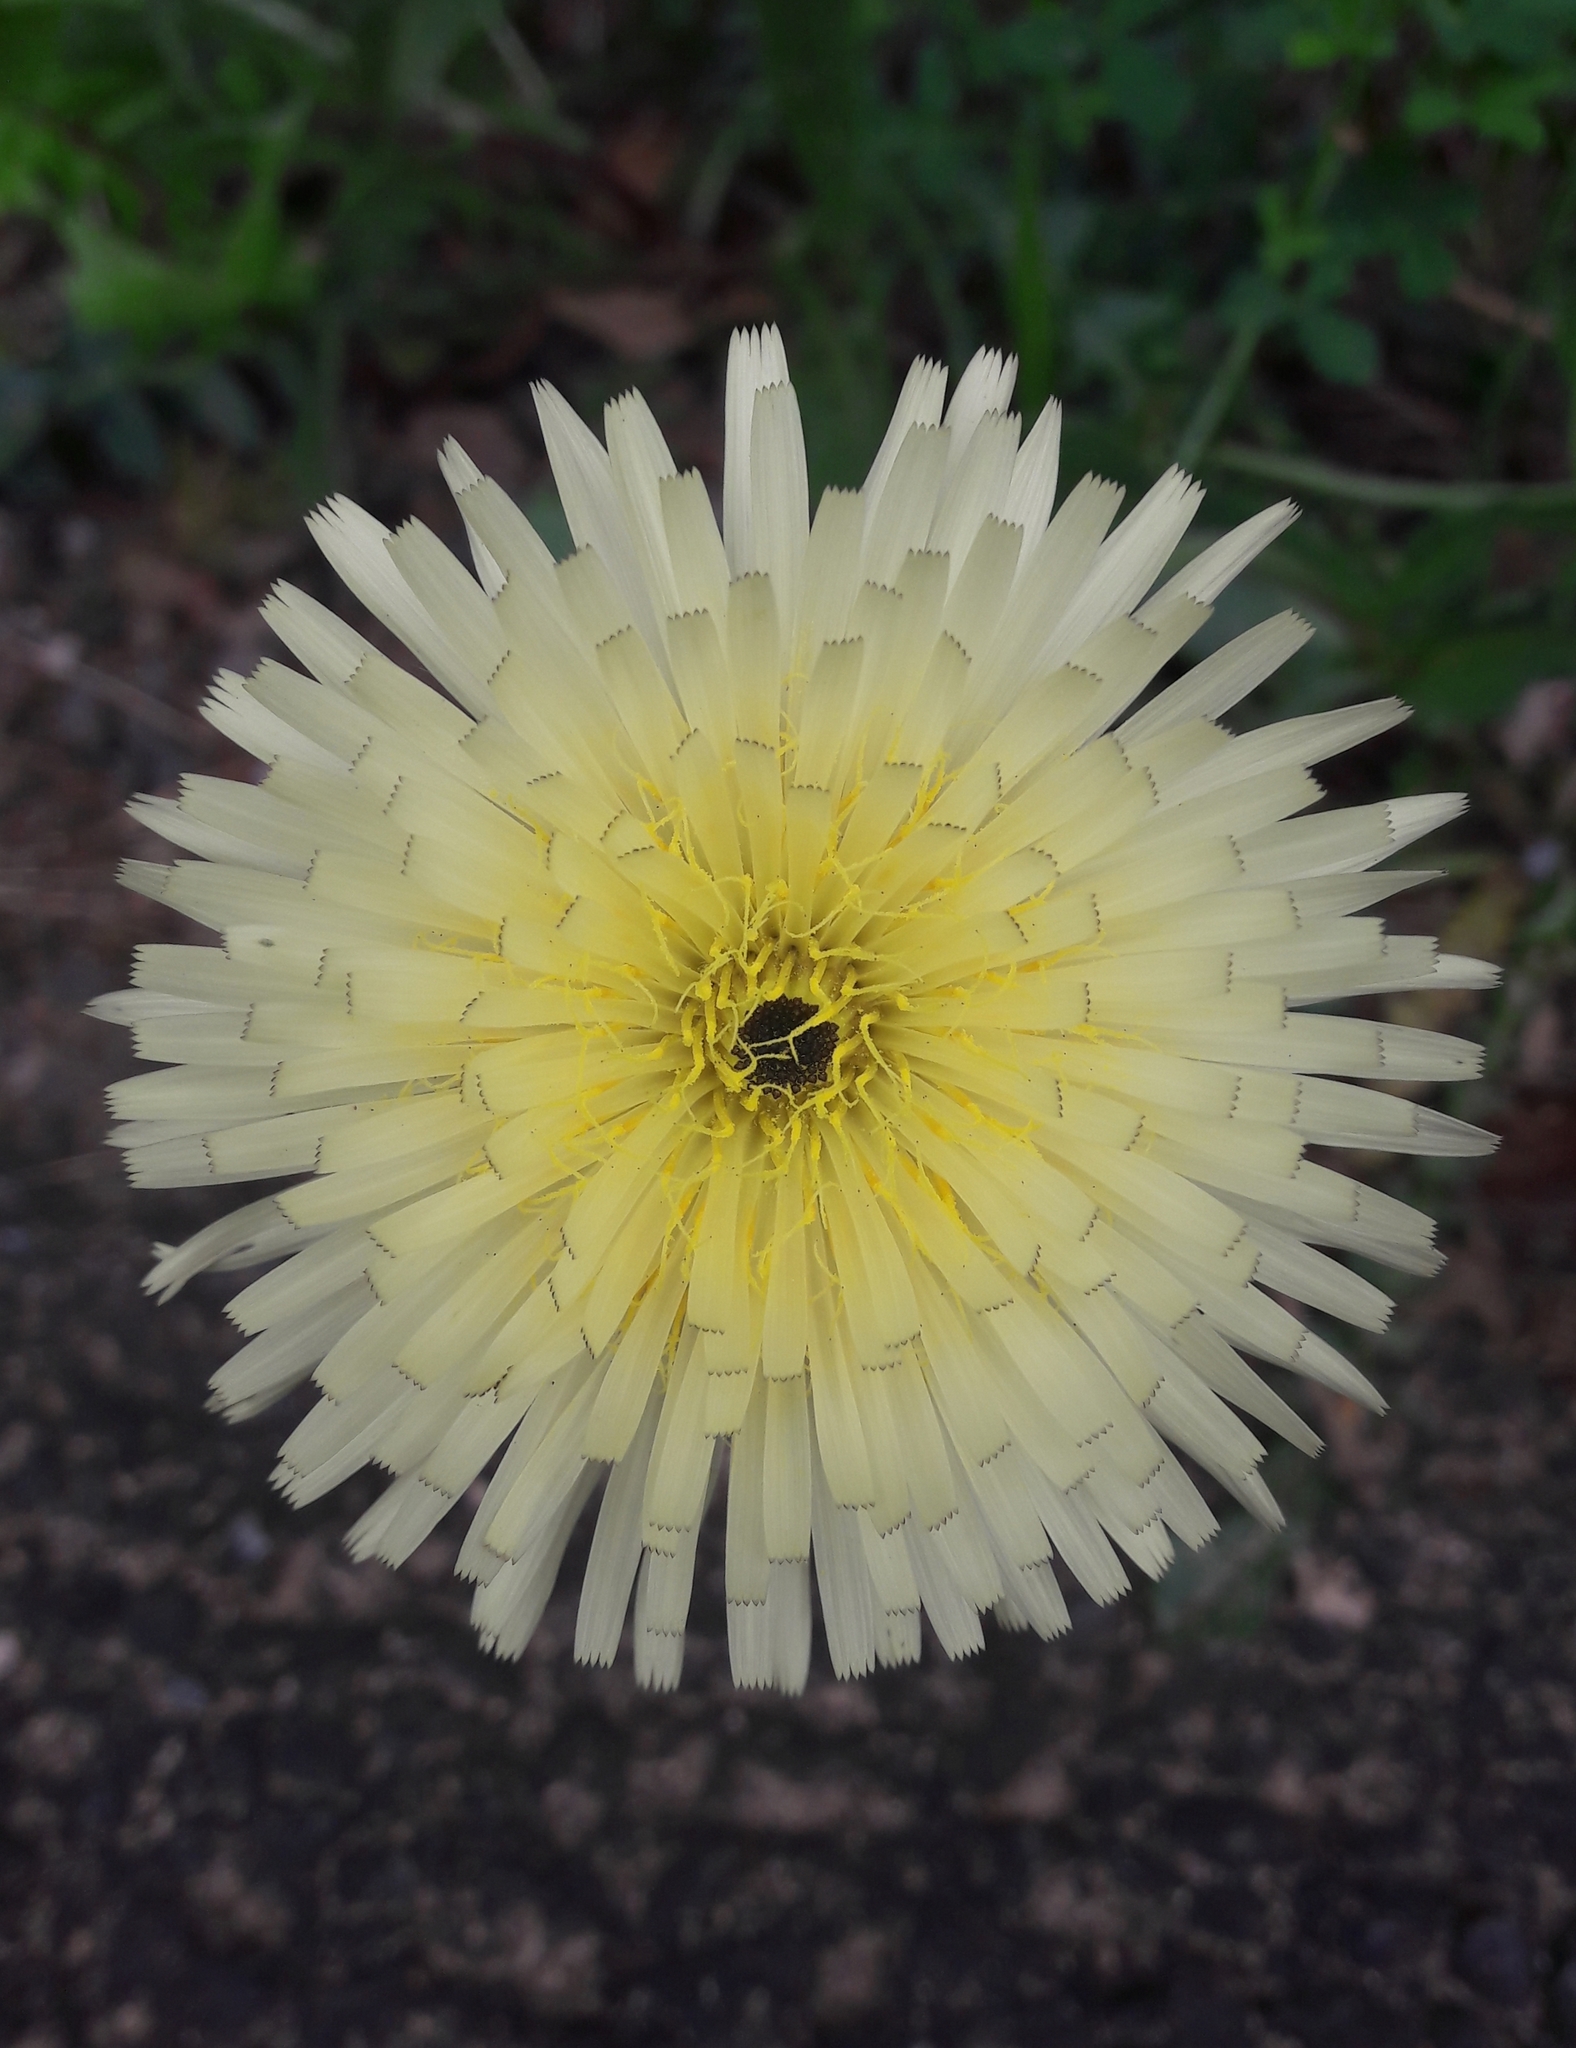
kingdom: Plantae
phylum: Tracheophyta
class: Magnoliopsida
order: Asterales
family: Asteraceae
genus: Urospermum
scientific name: Urospermum dalechampii
